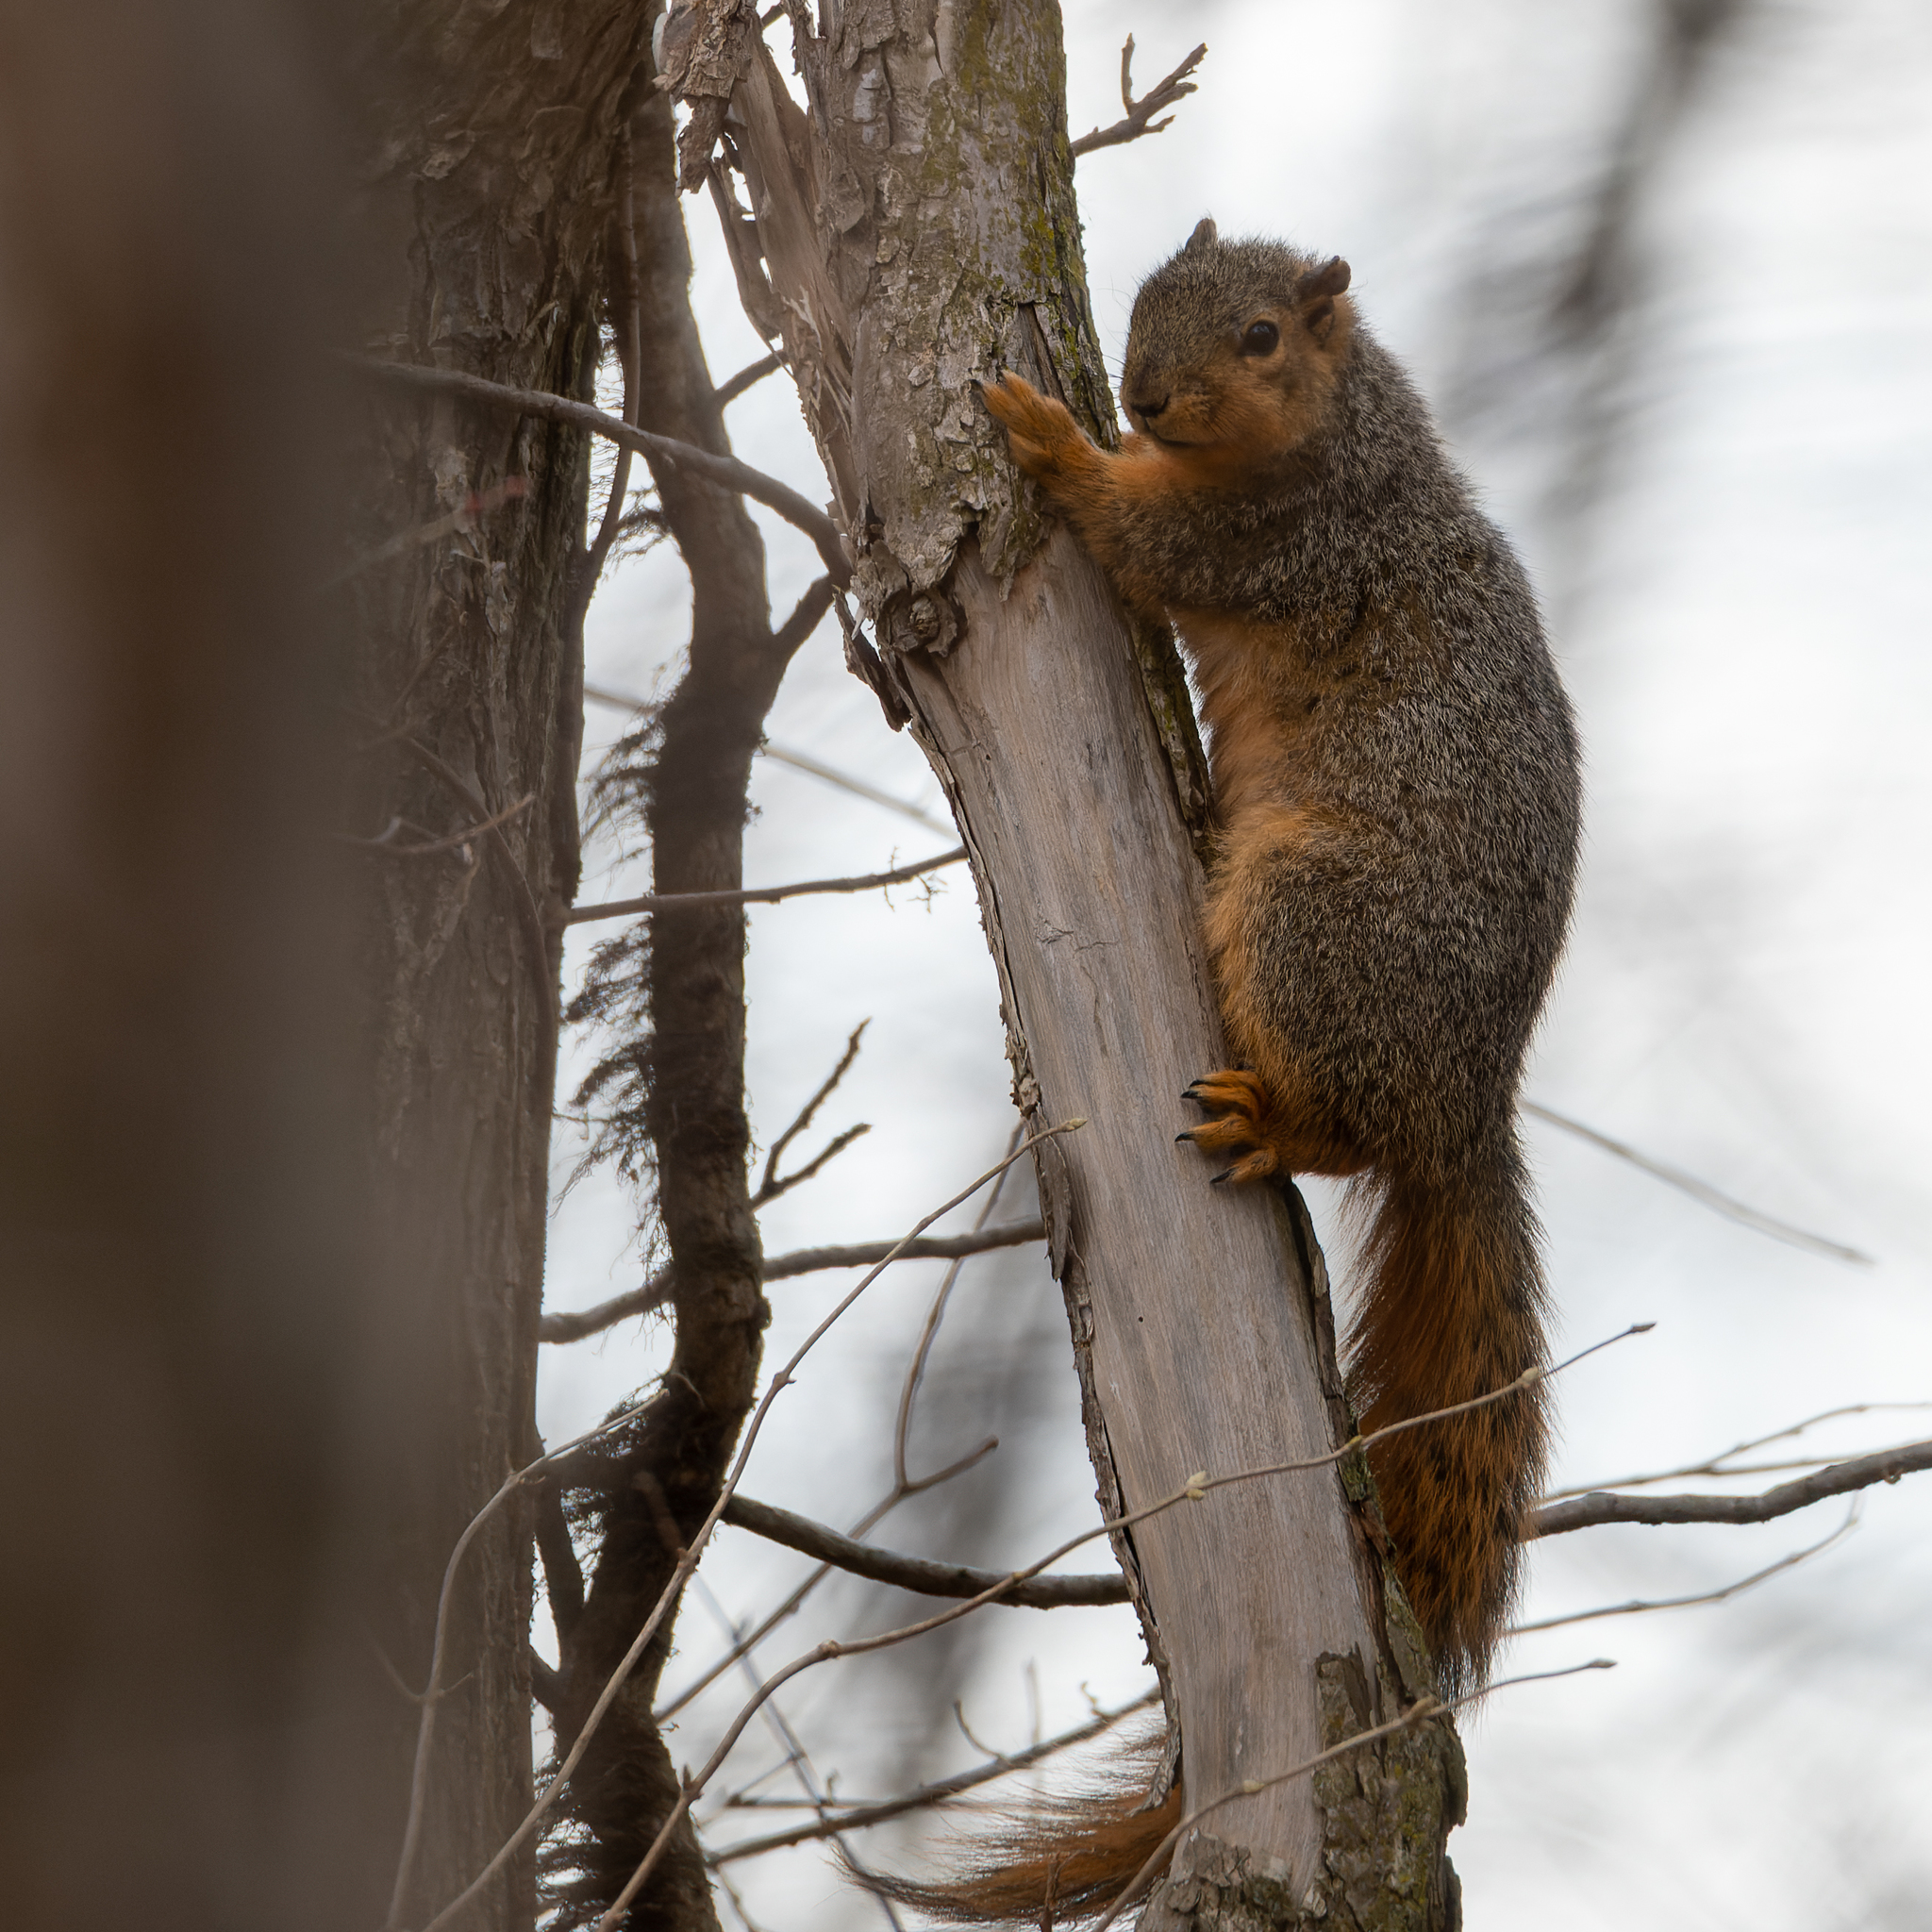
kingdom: Animalia
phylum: Chordata
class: Mammalia
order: Rodentia
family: Sciuridae
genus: Sciurus
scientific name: Sciurus niger
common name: Fox squirrel
